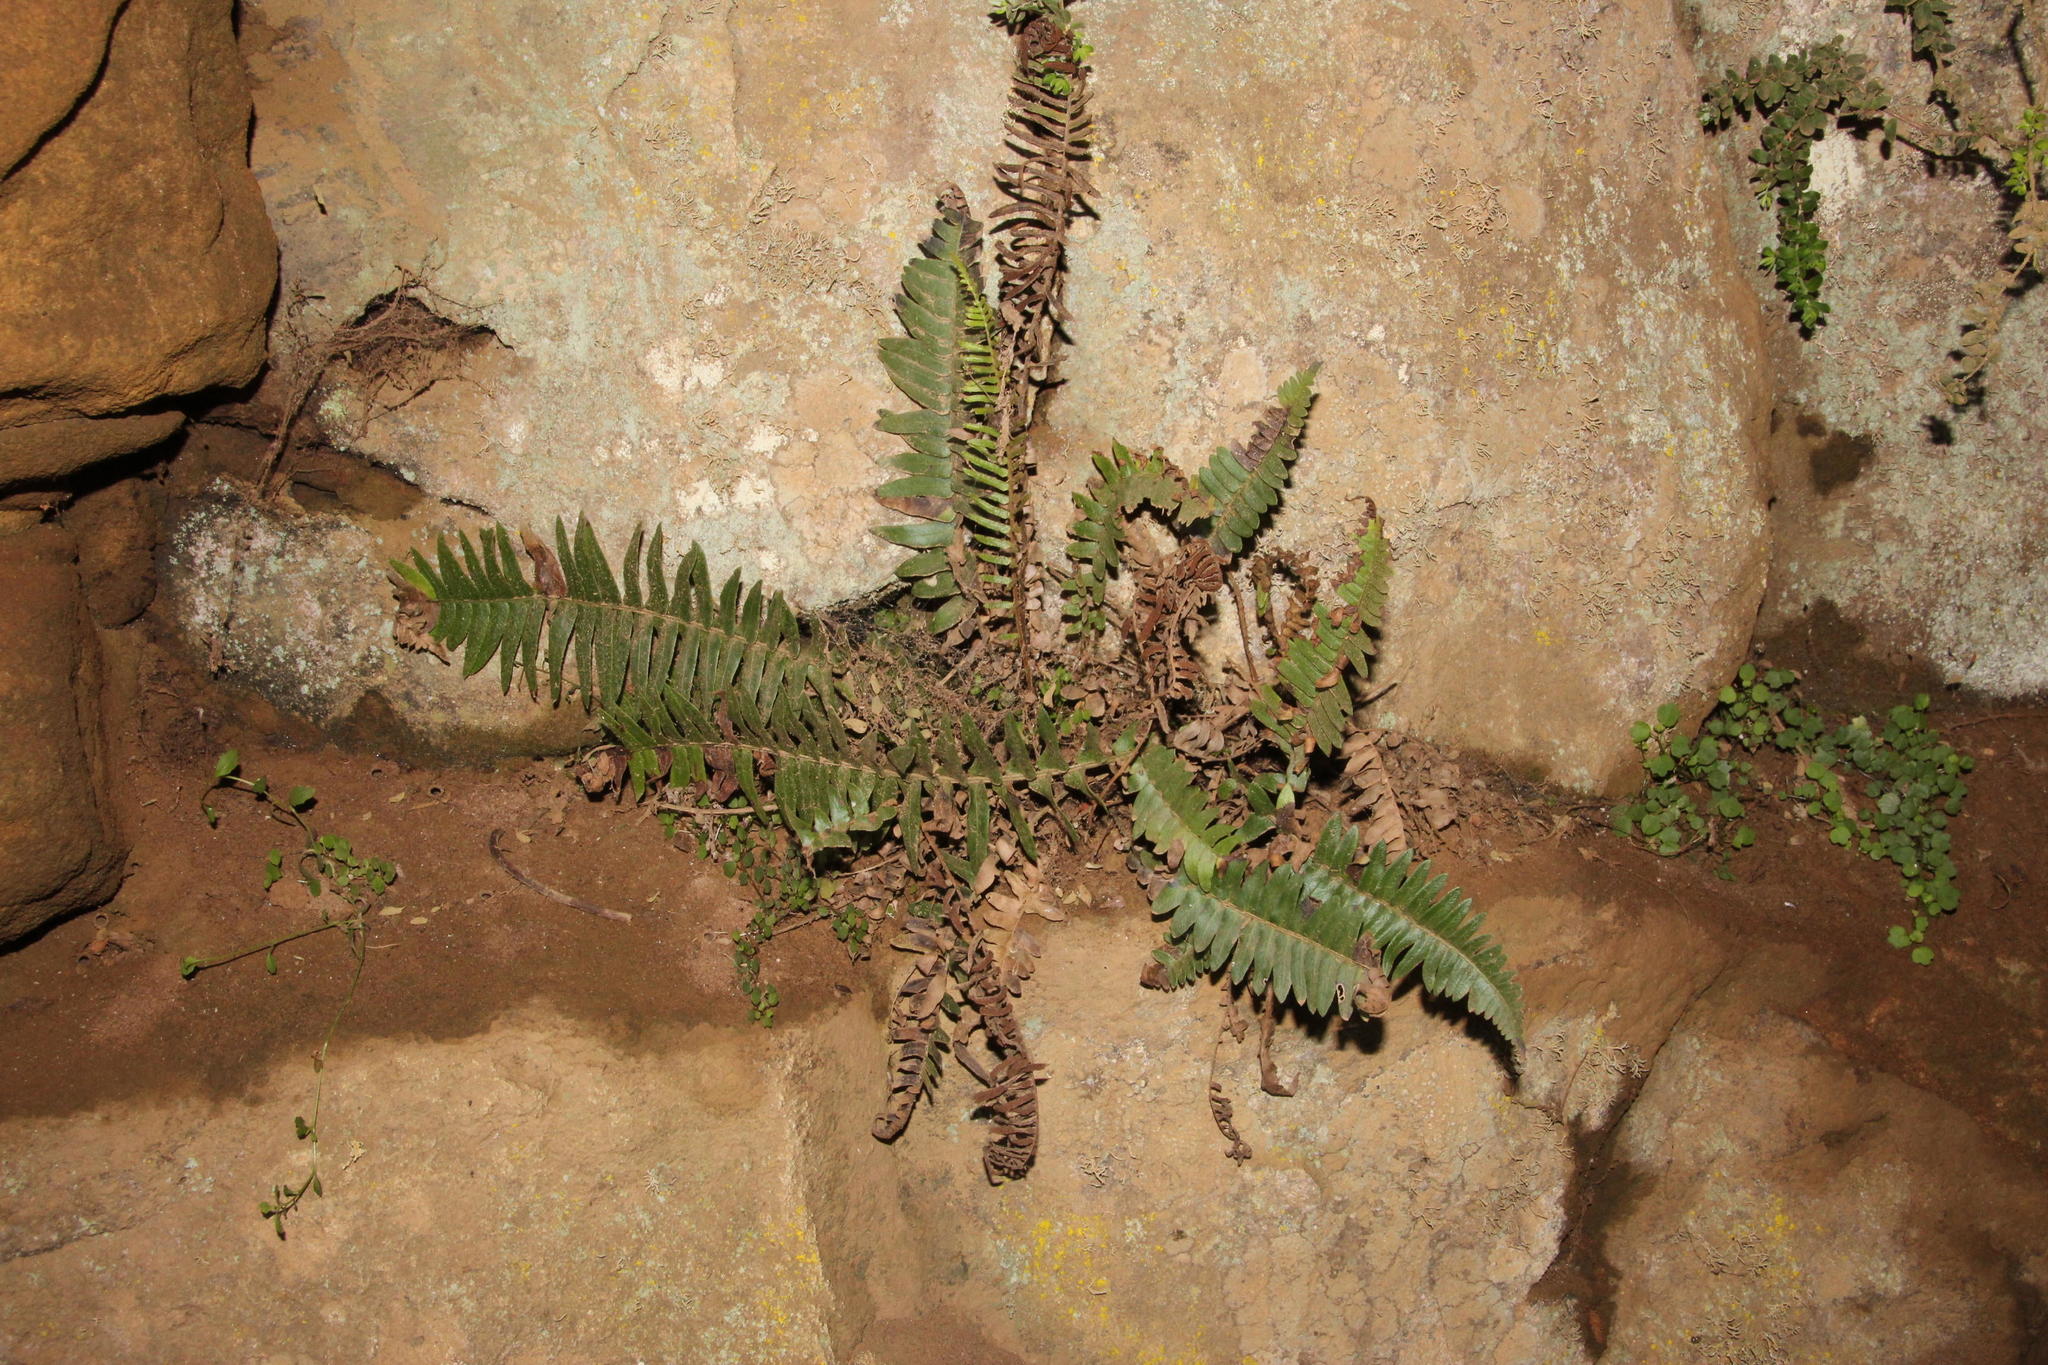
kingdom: Plantae
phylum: Tracheophyta
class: Polypodiopsida
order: Polypodiales
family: Blechnaceae
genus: Blechnum
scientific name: Blechnum australe
